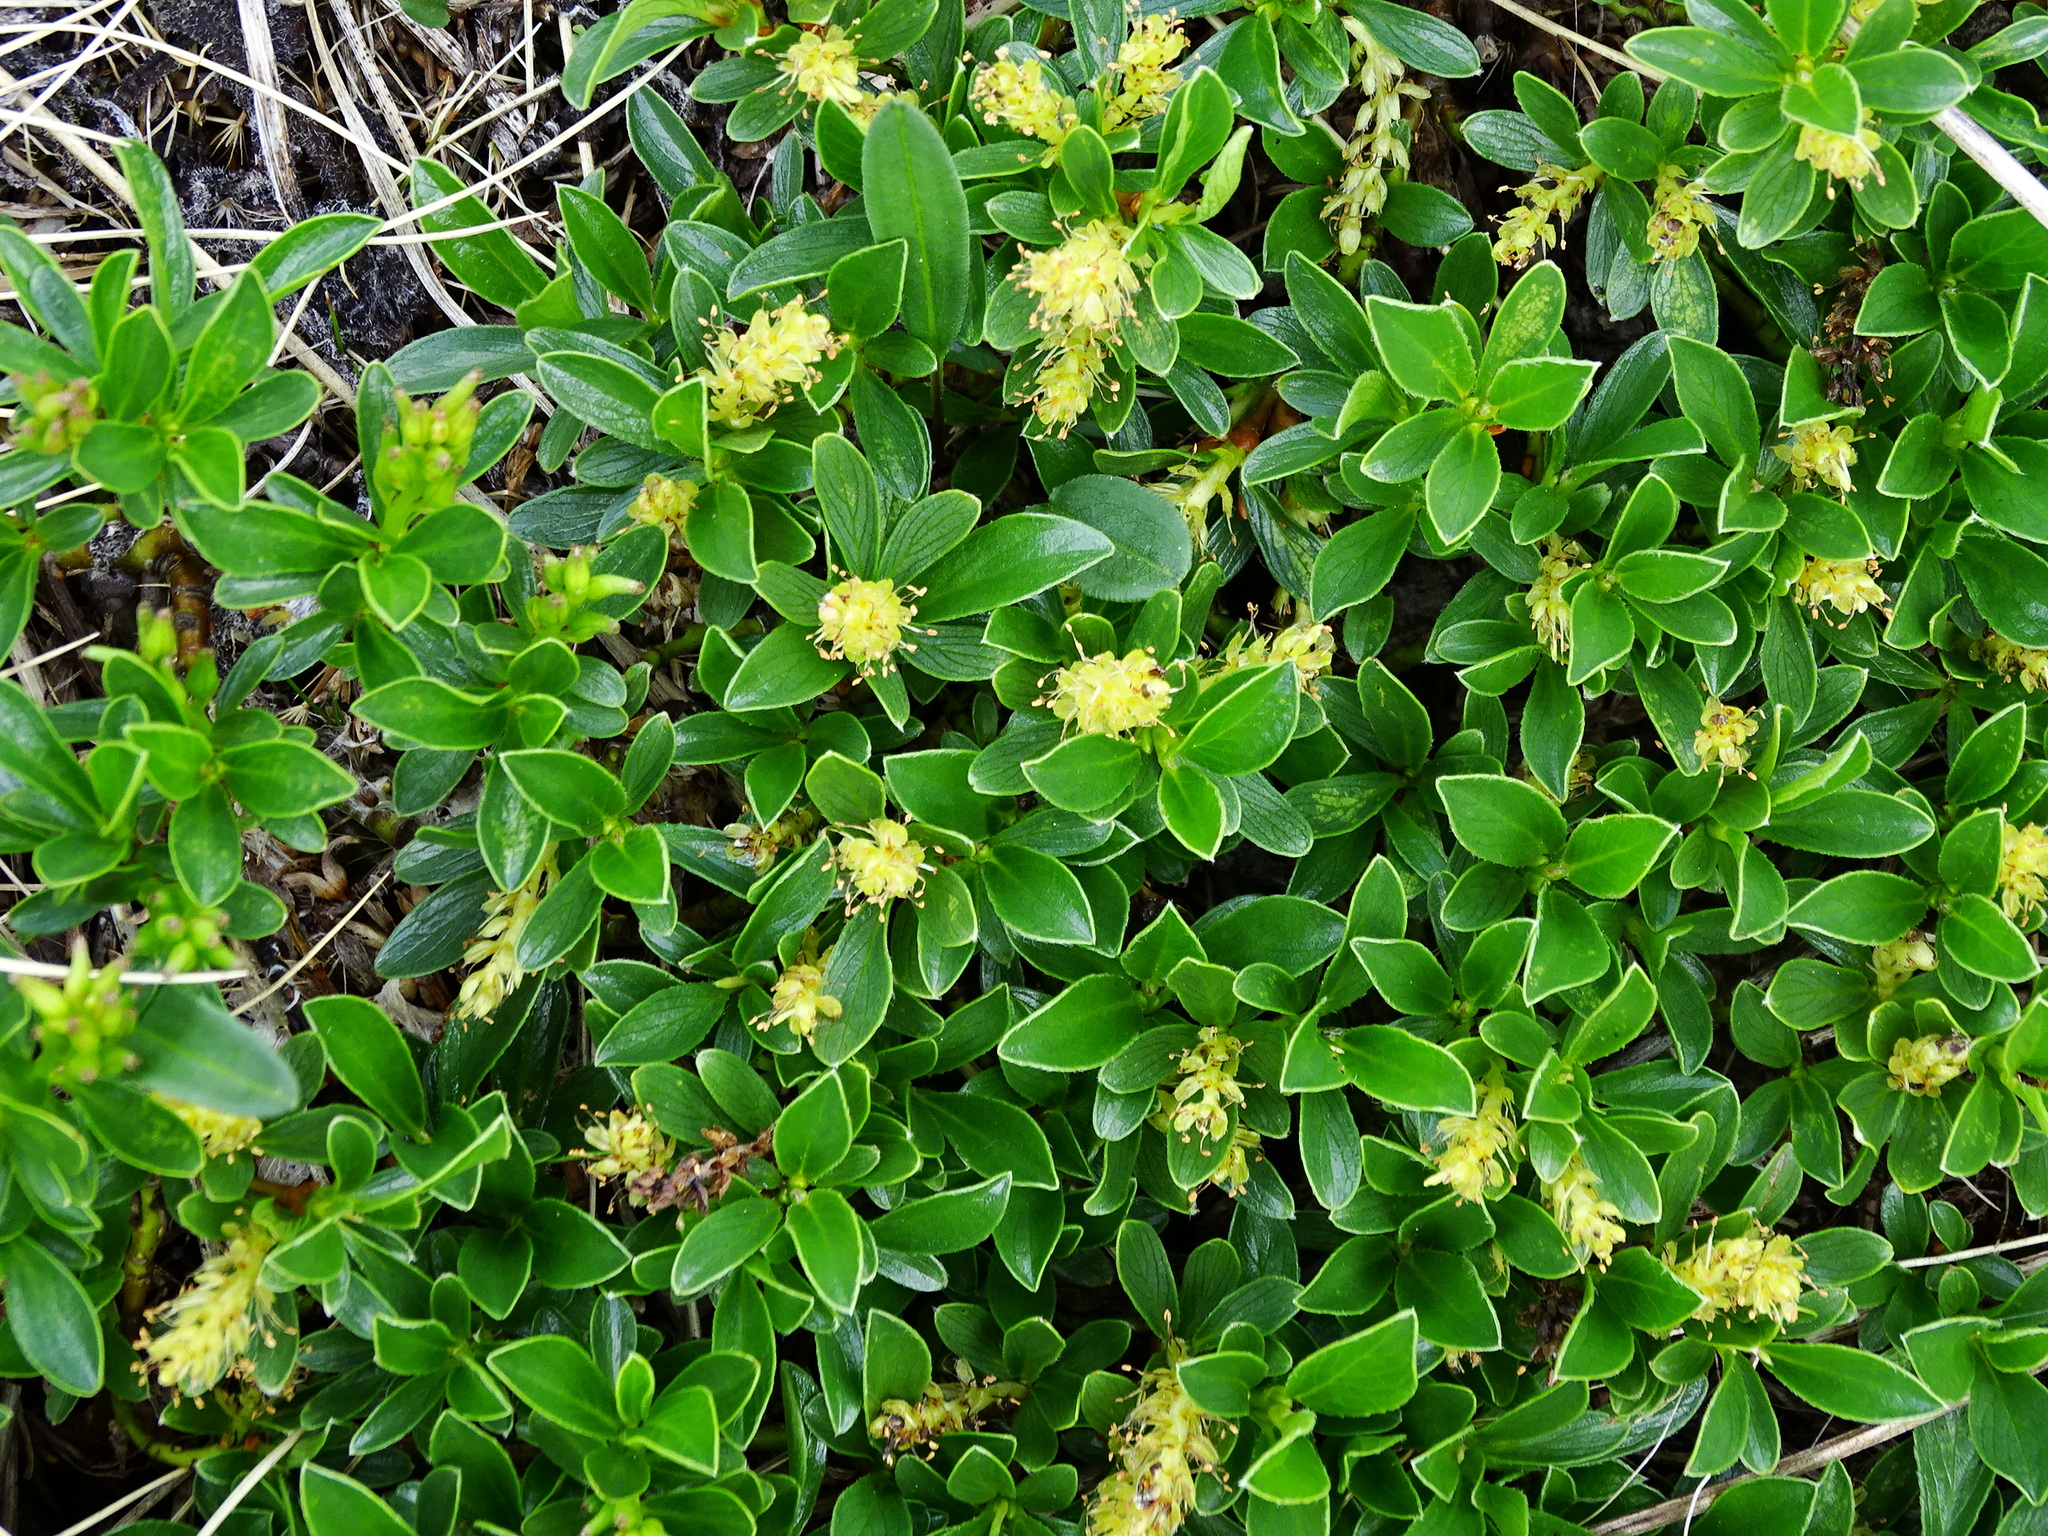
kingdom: Plantae
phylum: Tracheophyta
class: Magnoliopsida
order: Malpighiales
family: Salicaceae
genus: Salix
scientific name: Salix retusa
